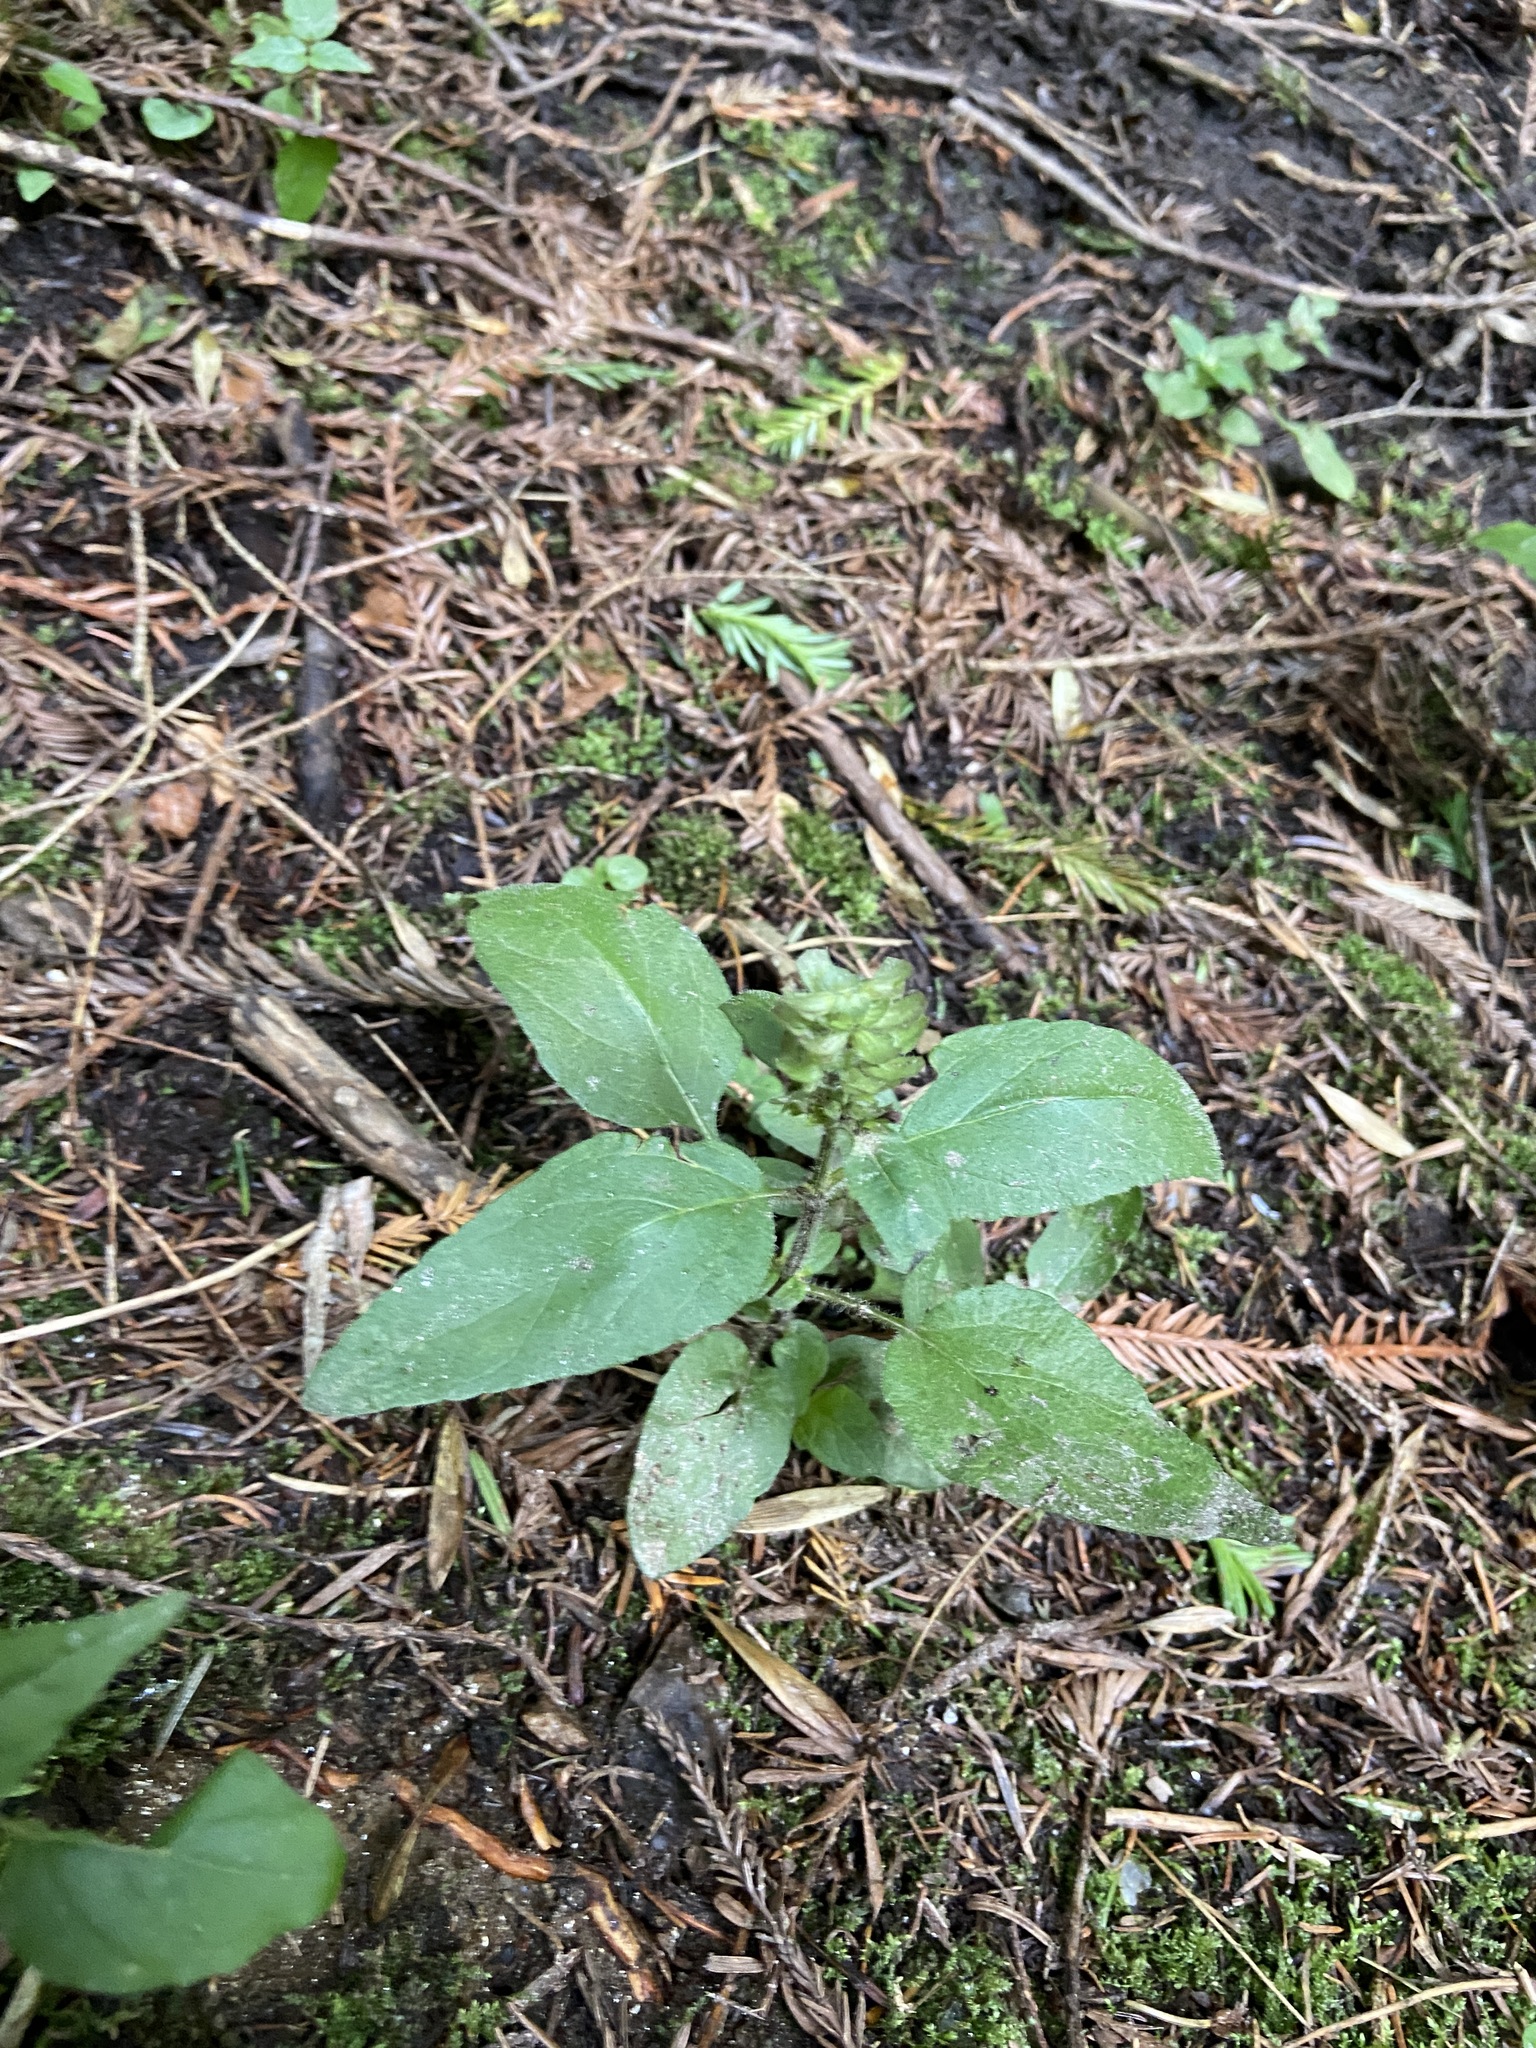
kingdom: Plantae
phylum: Tracheophyta
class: Magnoliopsida
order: Lamiales
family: Lamiaceae
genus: Prunella
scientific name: Prunella vulgaris
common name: Heal-all
